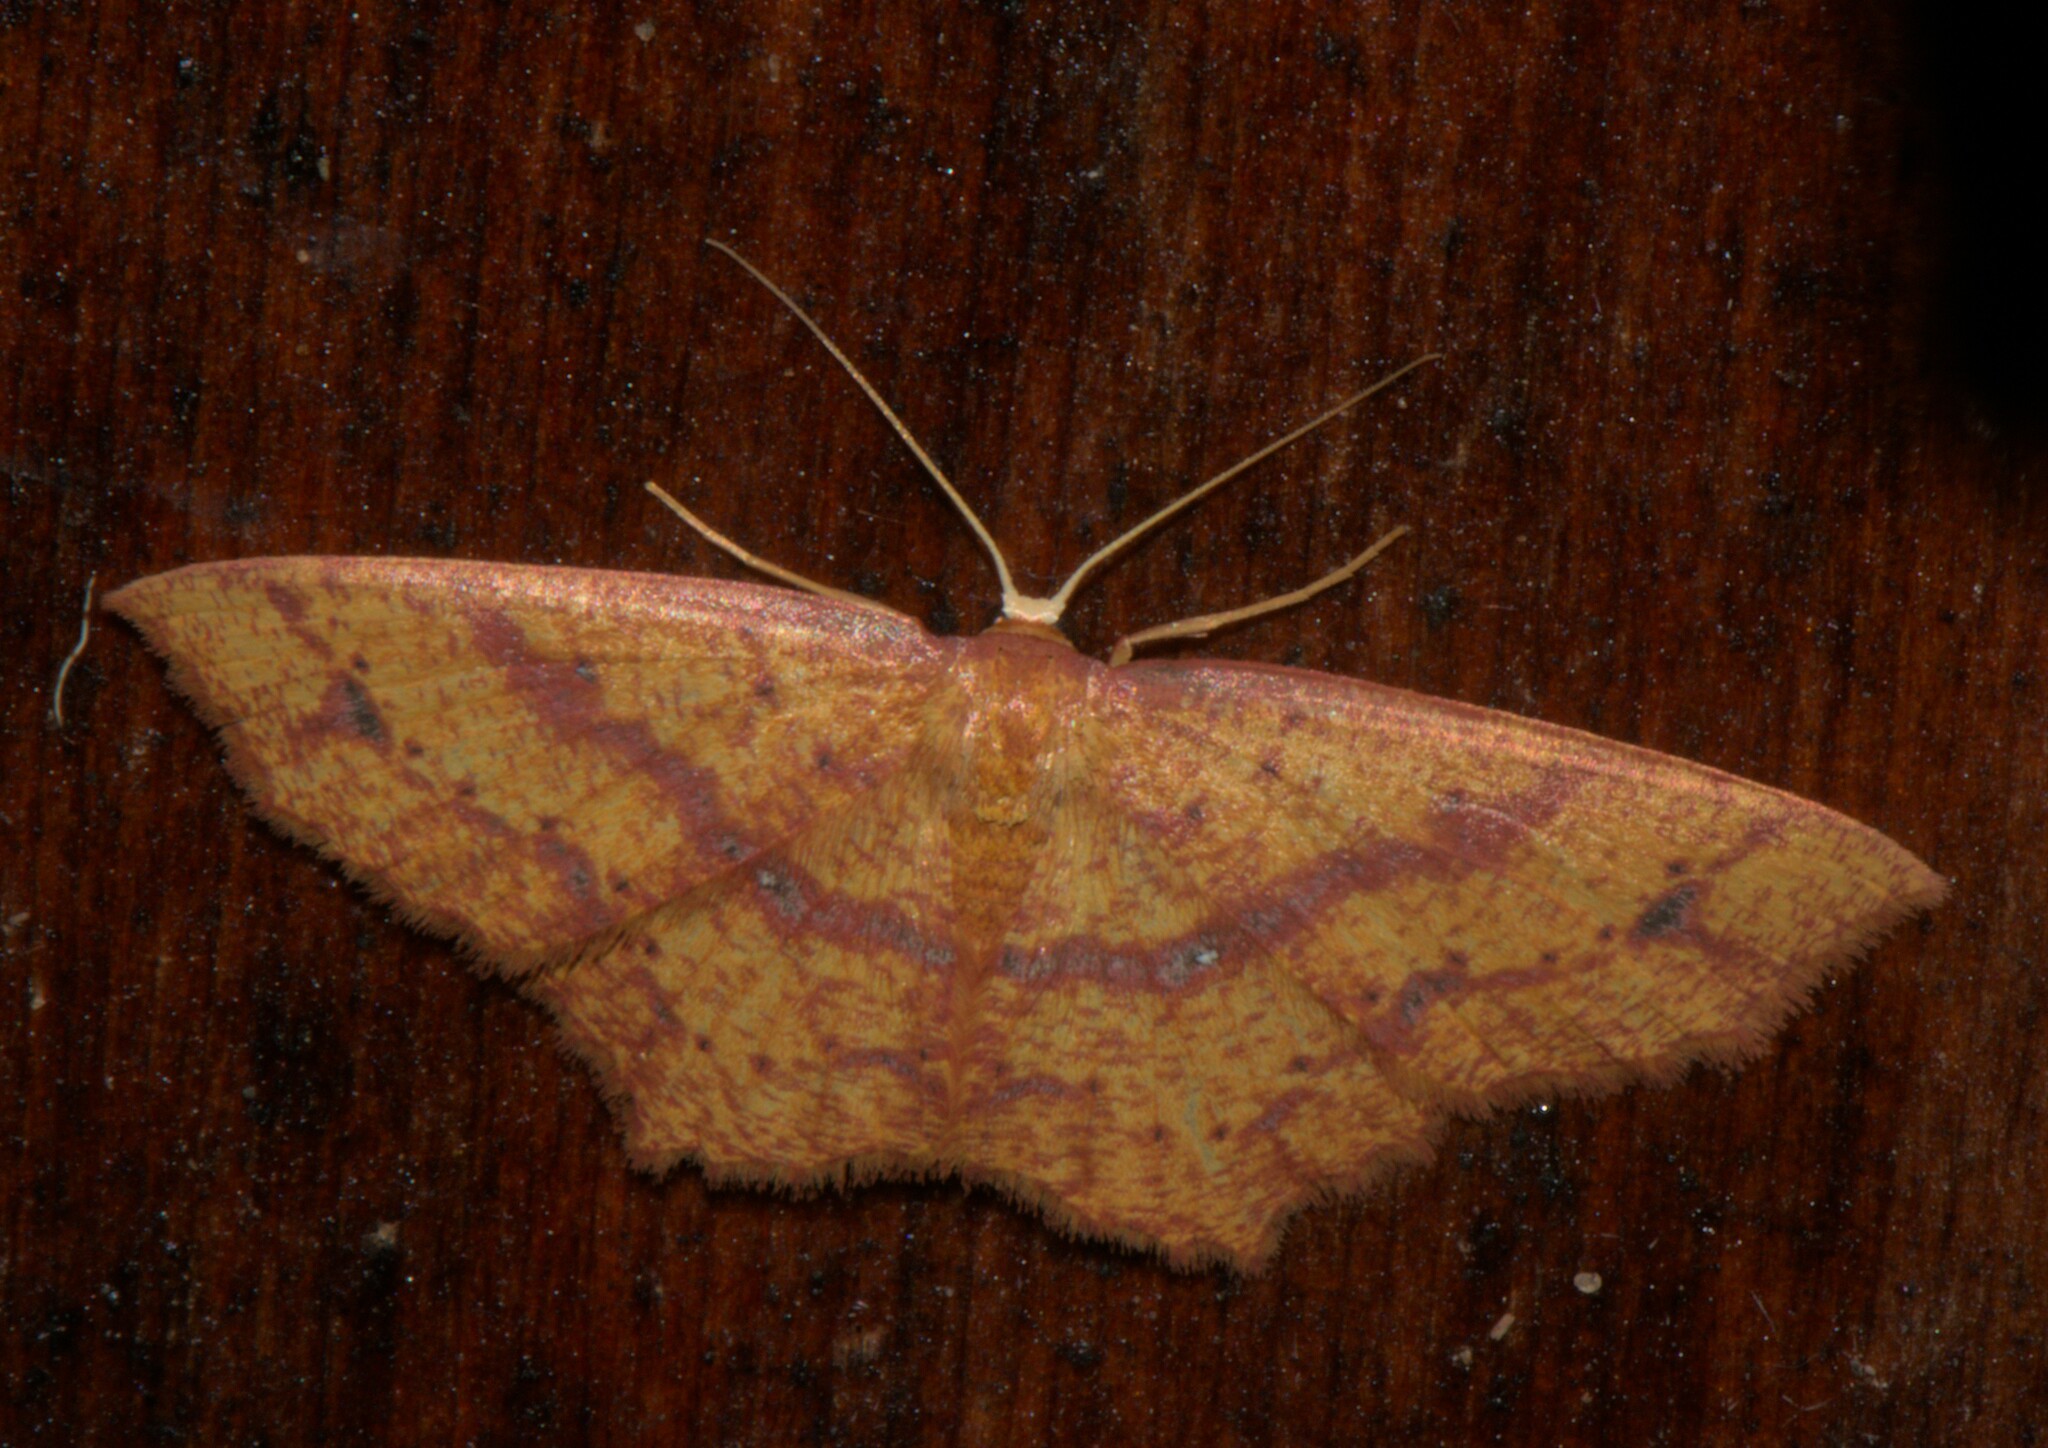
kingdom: Animalia
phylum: Arthropoda
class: Insecta
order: Lepidoptera
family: Geometridae
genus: Synegiodes
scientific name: Synegiodes hyriaria
